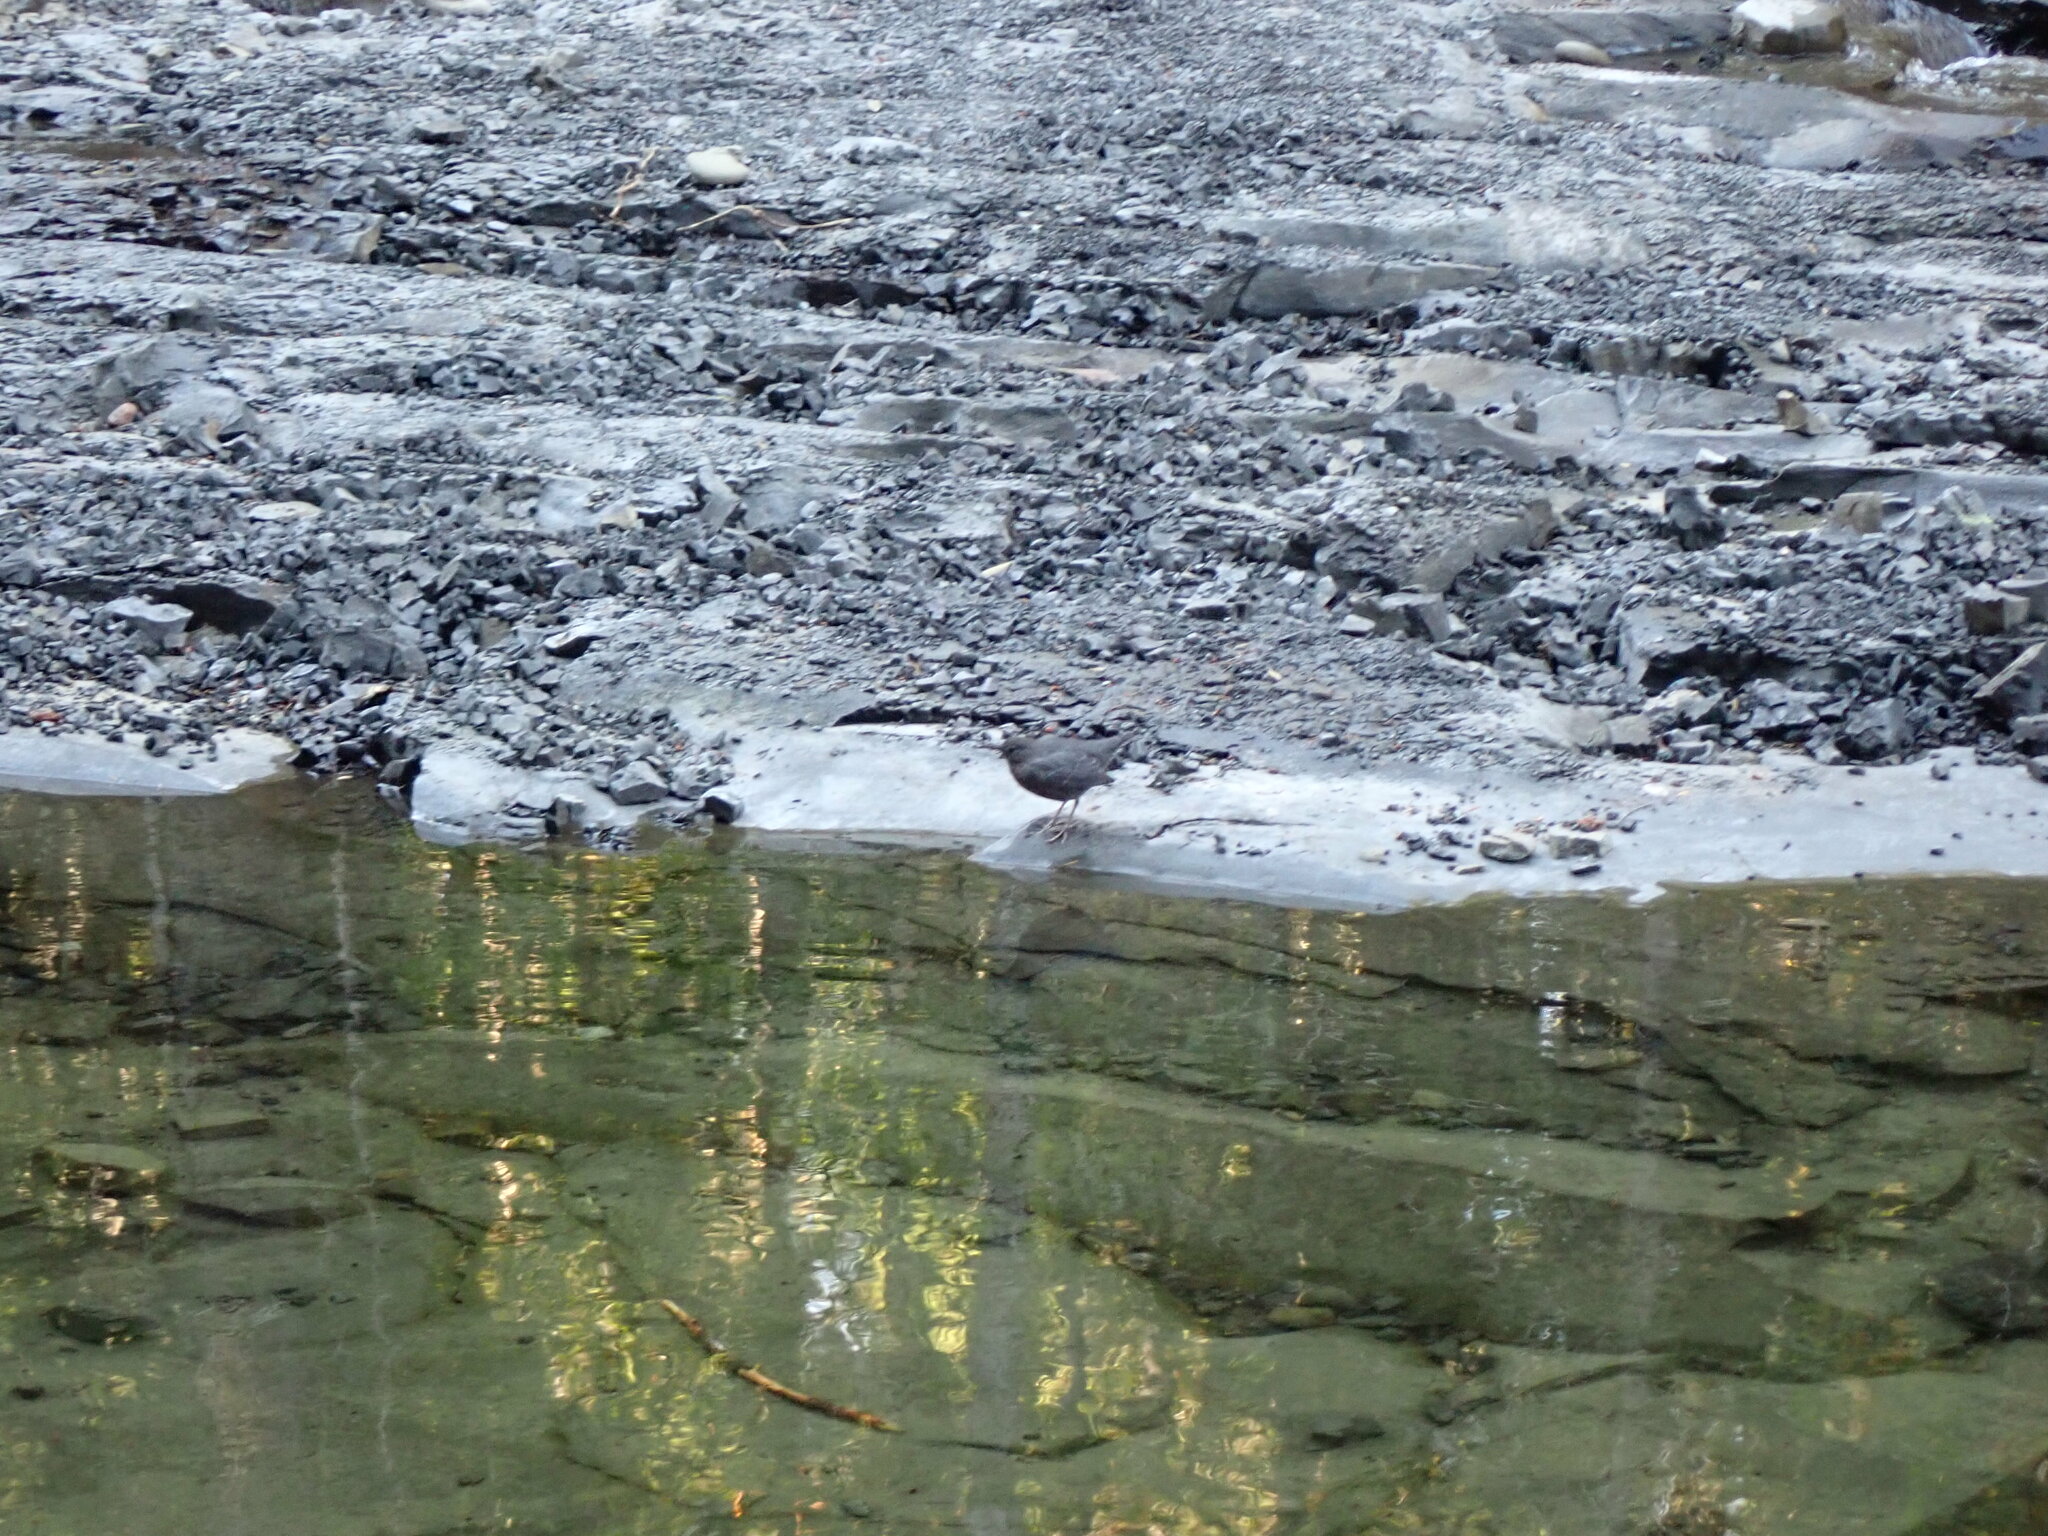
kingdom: Animalia
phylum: Chordata
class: Aves
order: Passeriformes
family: Cinclidae
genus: Cinclus
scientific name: Cinclus mexicanus
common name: American dipper
